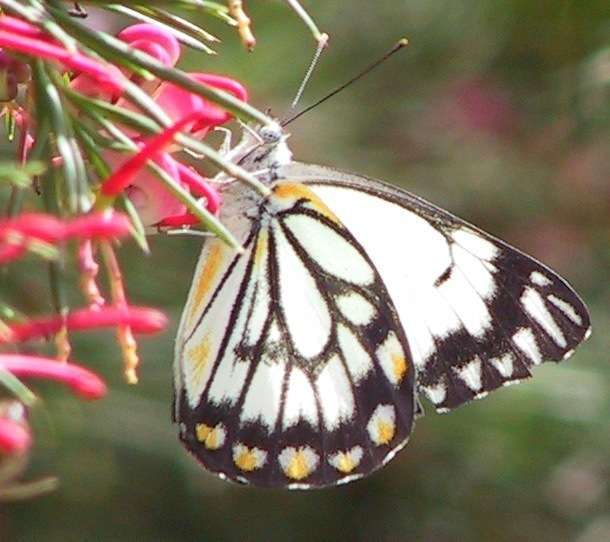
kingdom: Animalia
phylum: Arthropoda
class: Insecta
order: Lepidoptera
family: Pieridae
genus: Belenois
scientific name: Belenois java
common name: Caper white
